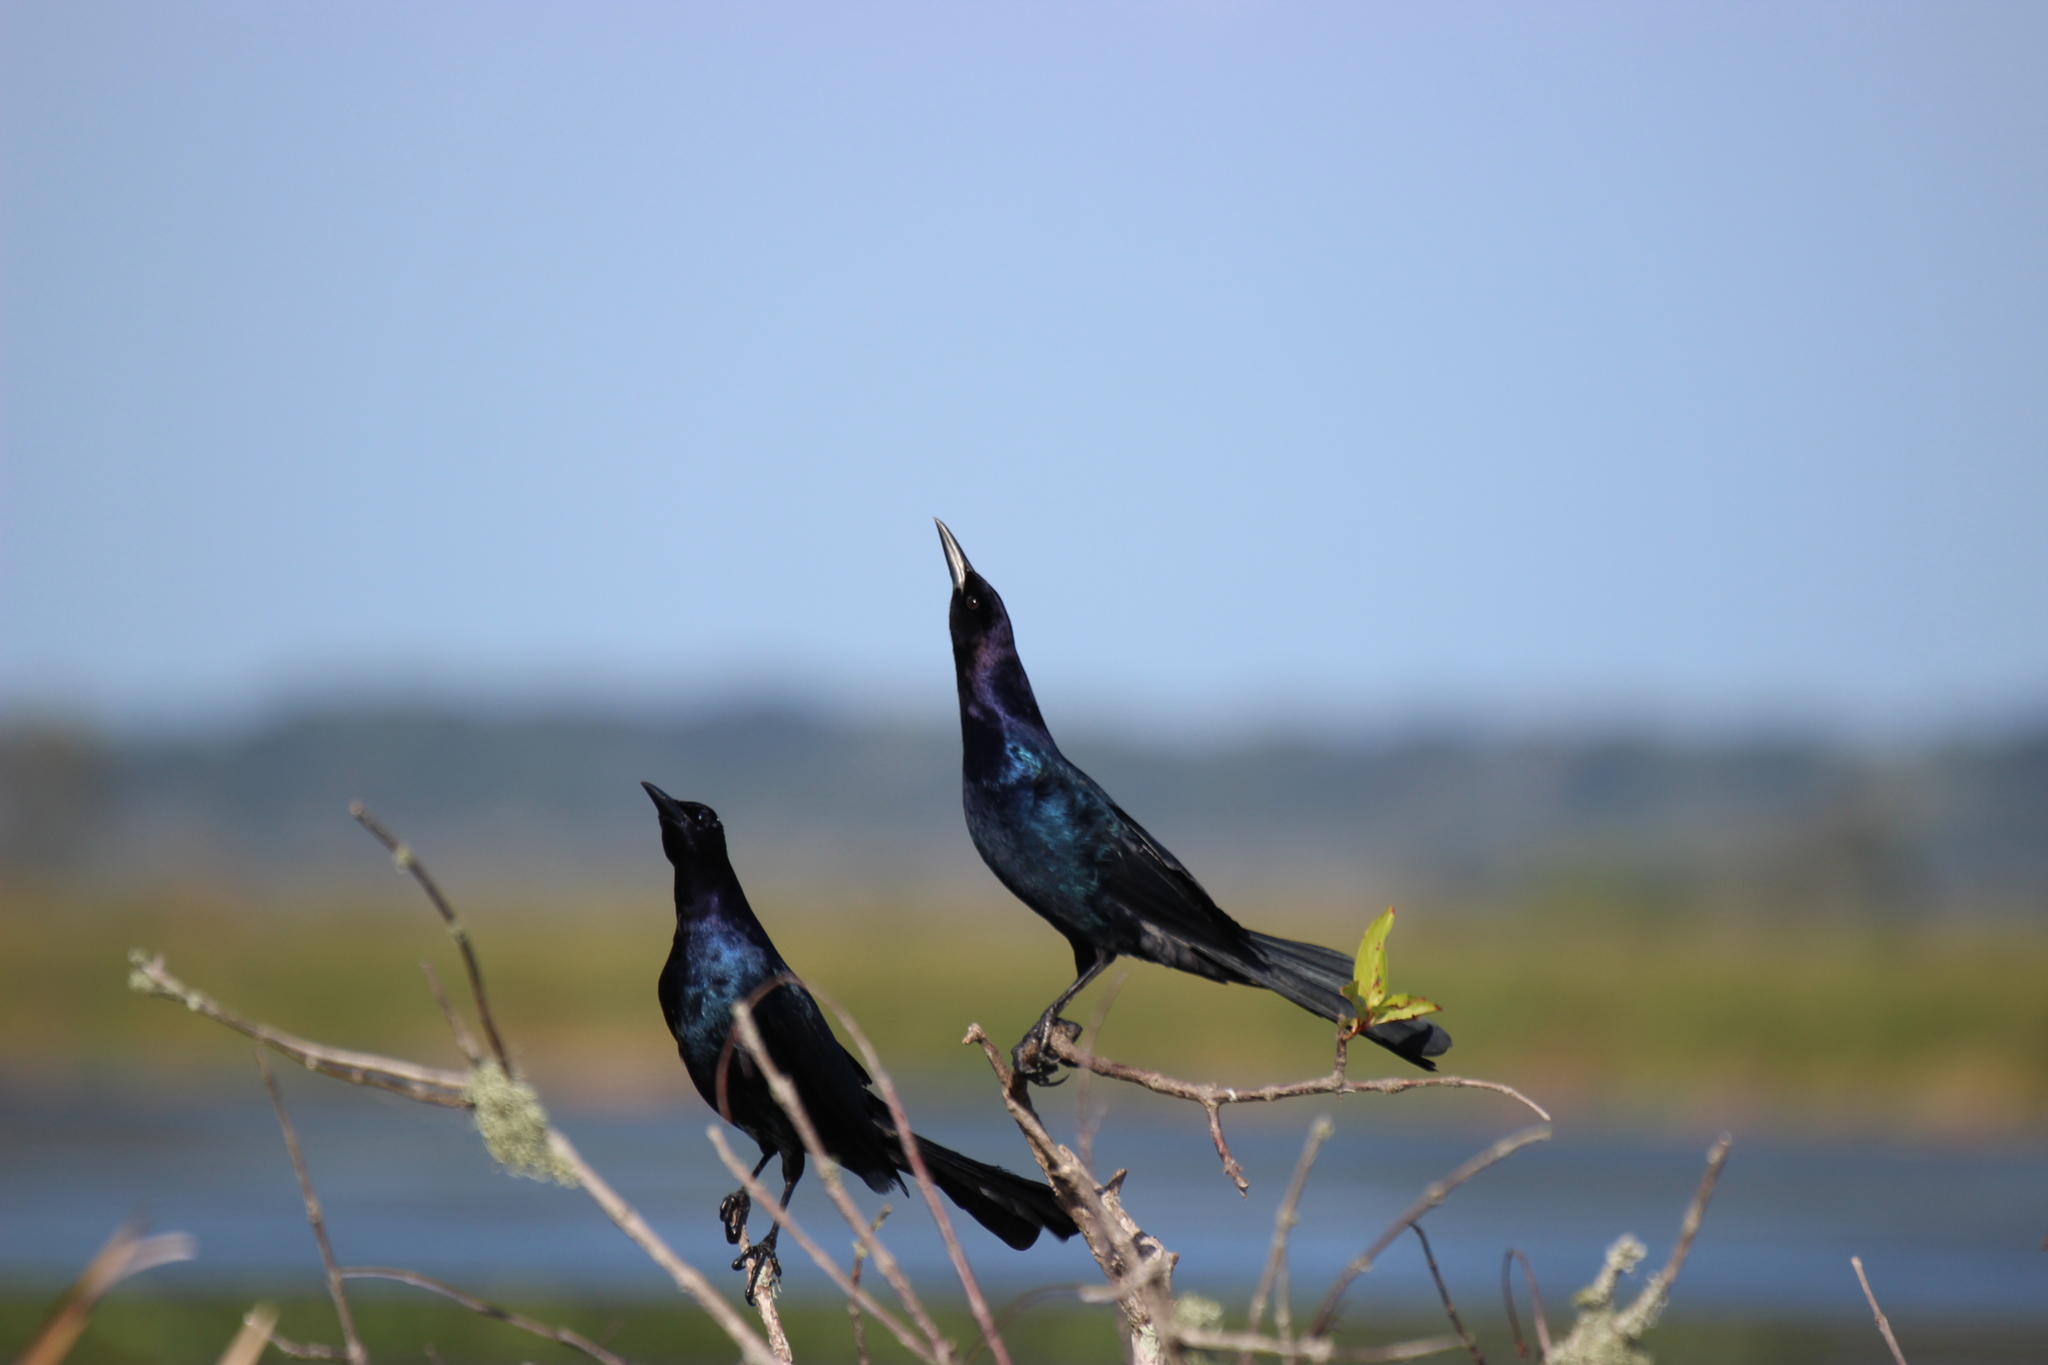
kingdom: Animalia
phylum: Chordata
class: Aves
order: Passeriformes
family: Icteridae
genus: Quiscalus
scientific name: Quiscalus major
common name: Boat-tailed grackle
